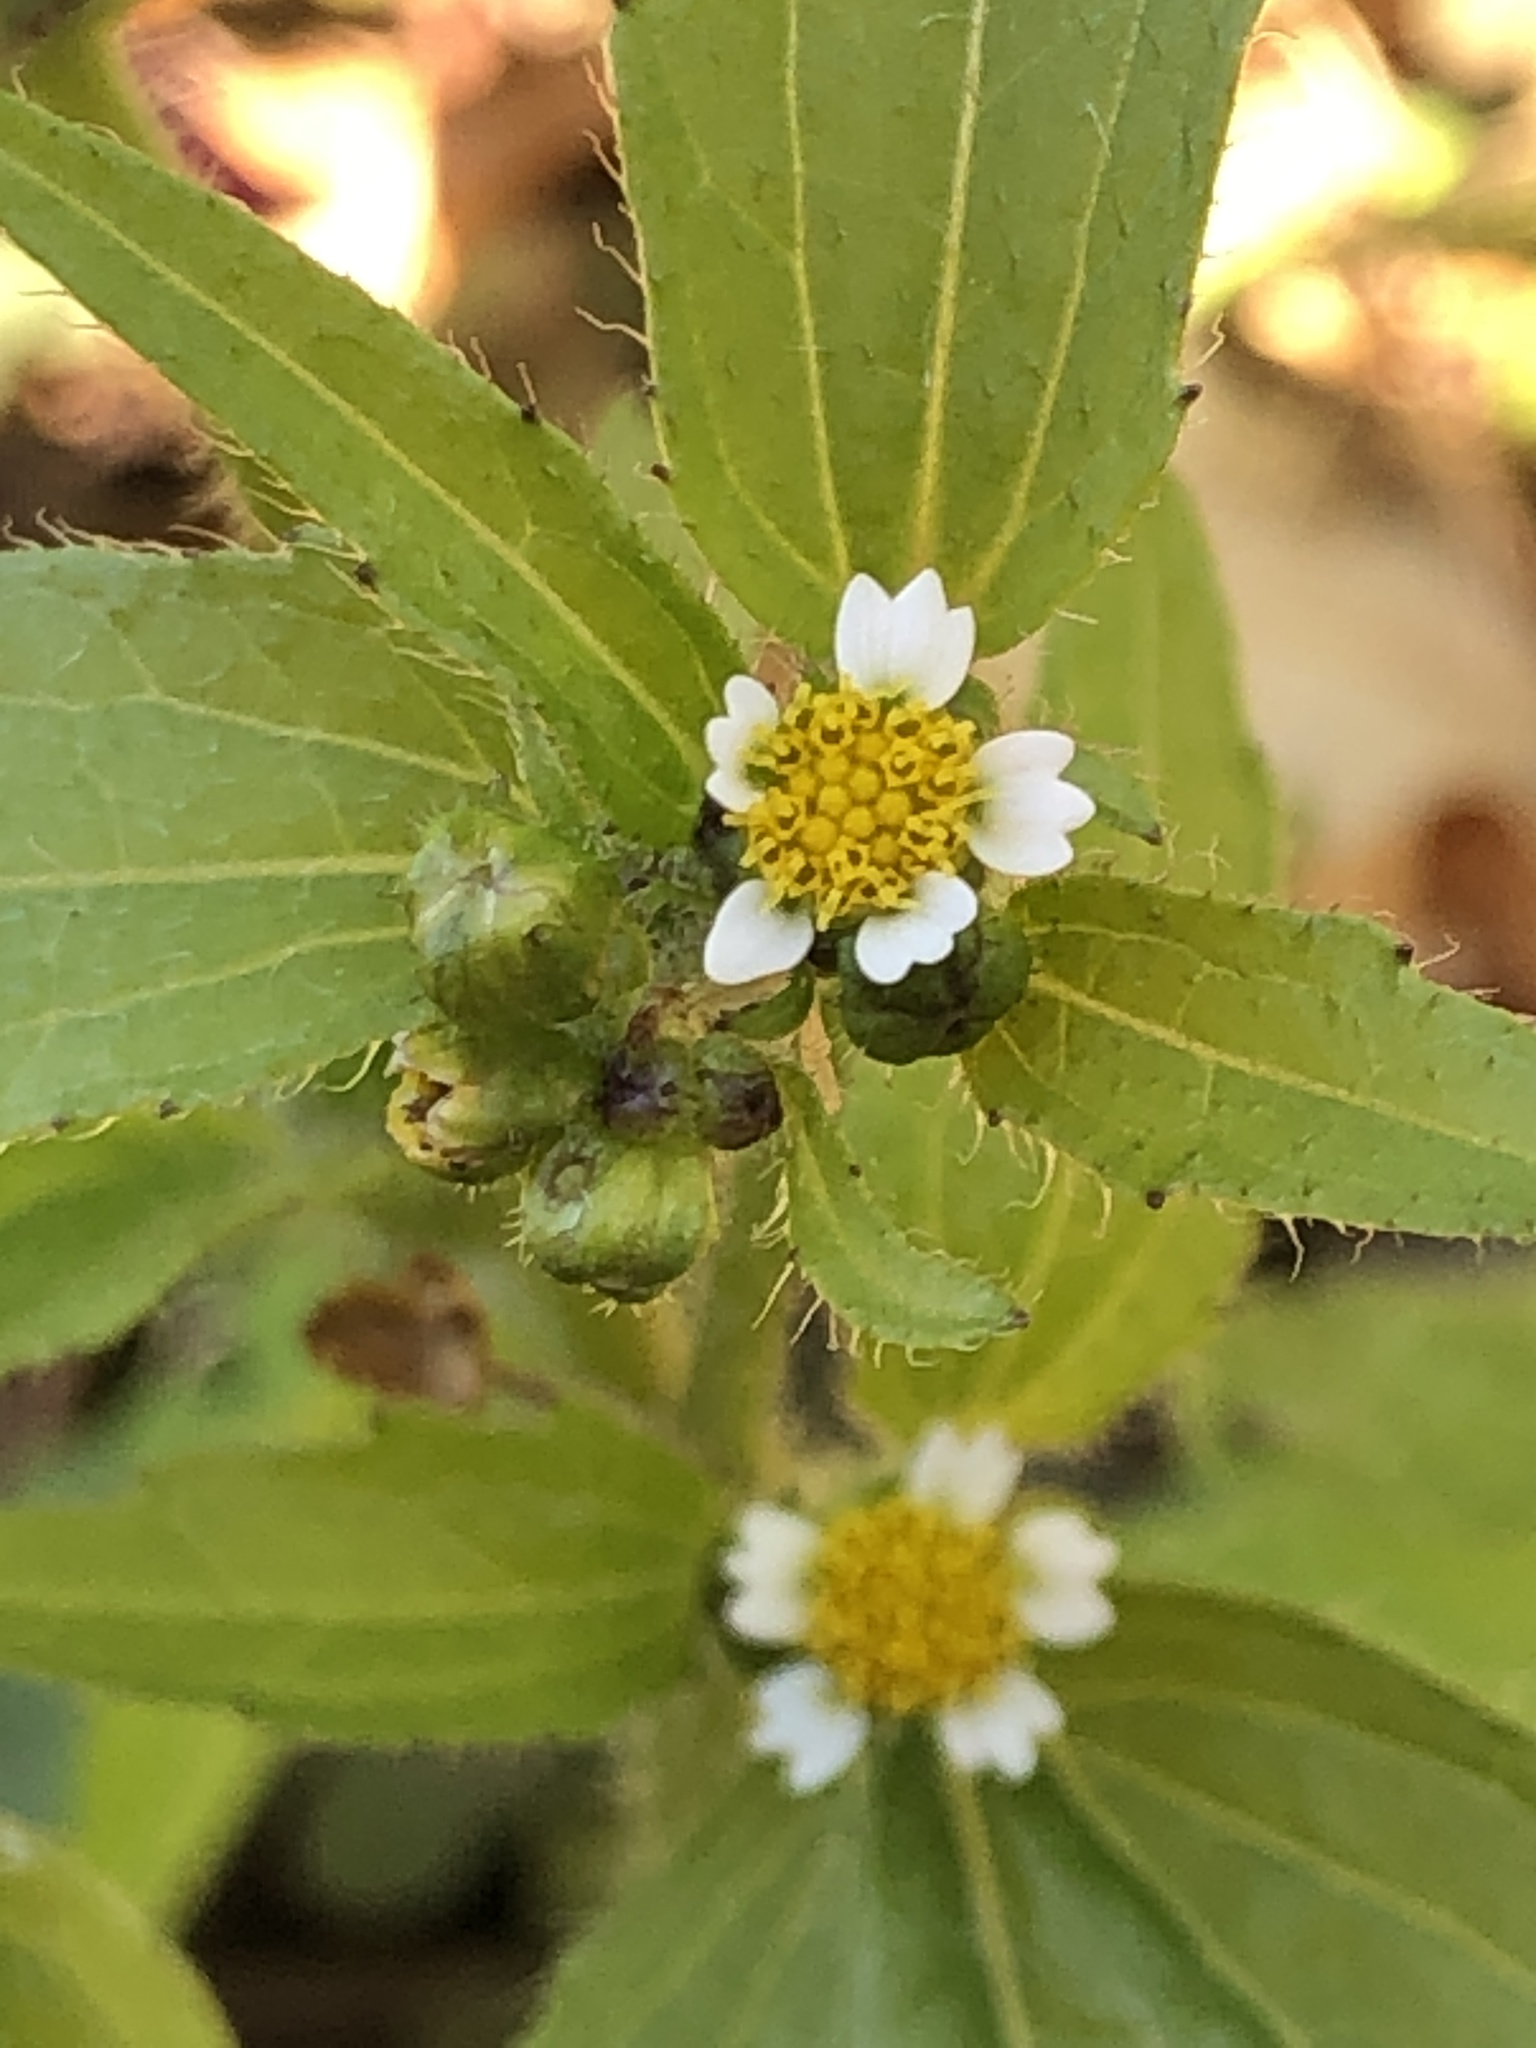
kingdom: Plantae
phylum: Tracheophyta
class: Magnoliopsida
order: Asterales
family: Asteraceae
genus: Galinsoga
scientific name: Galinsoga quadriradiata
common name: Shaggy soldier
